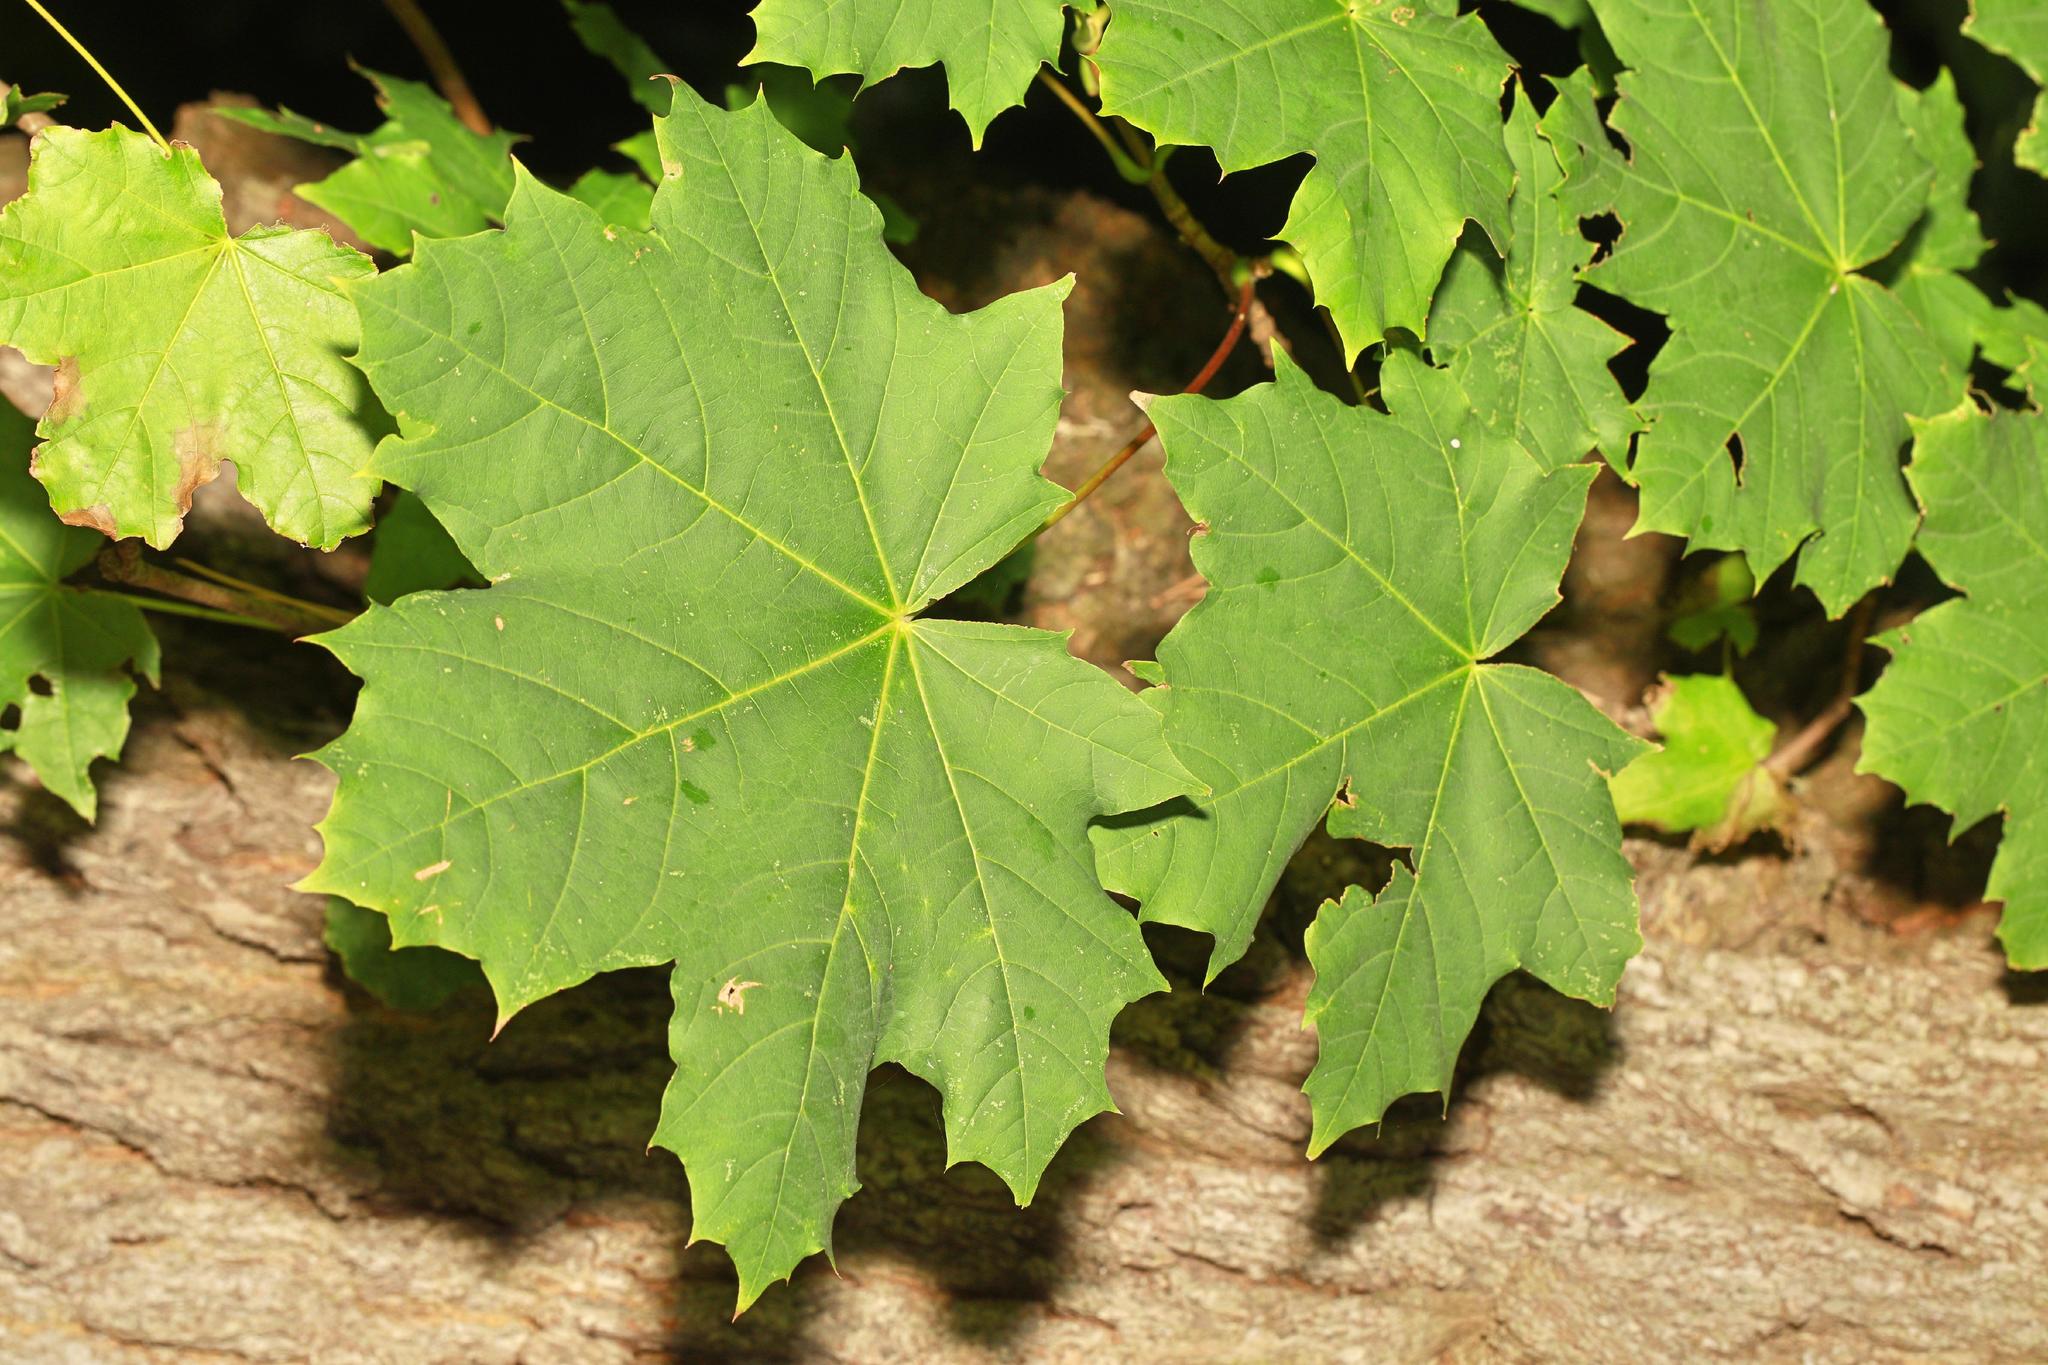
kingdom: Plantae
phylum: Tracheophyta
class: Magnoliopsida
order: Sapindales
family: Sapindaceae
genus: Acer
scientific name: Acer platanoides
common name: Norway maple
